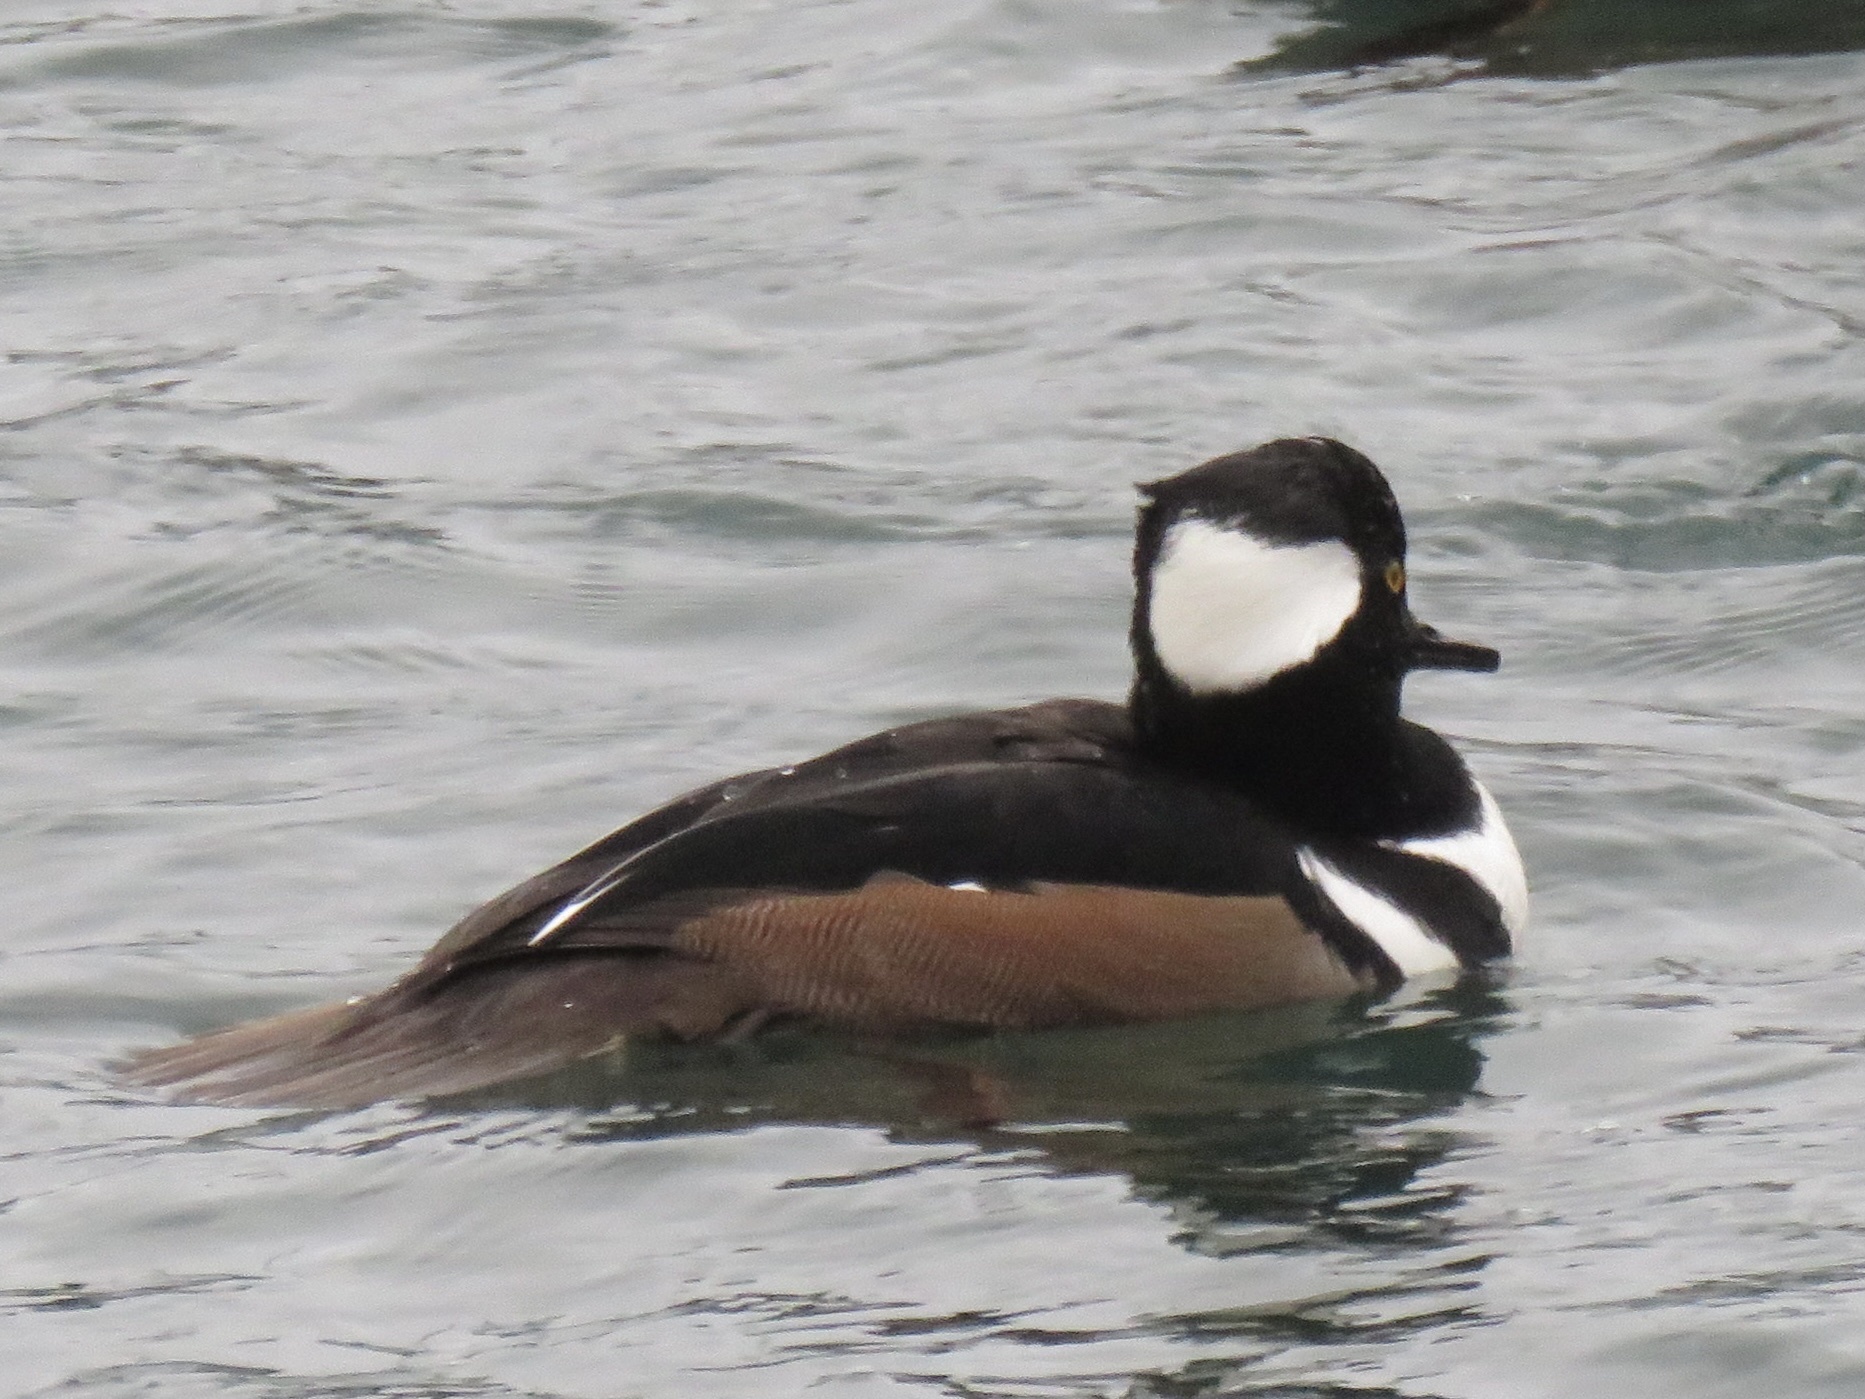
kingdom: Animalia
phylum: Chordata
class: Aves
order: Anseriformes
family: Anatidae
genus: Lophodytes
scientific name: Lophodytes cucullatus
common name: Hooded merganser
